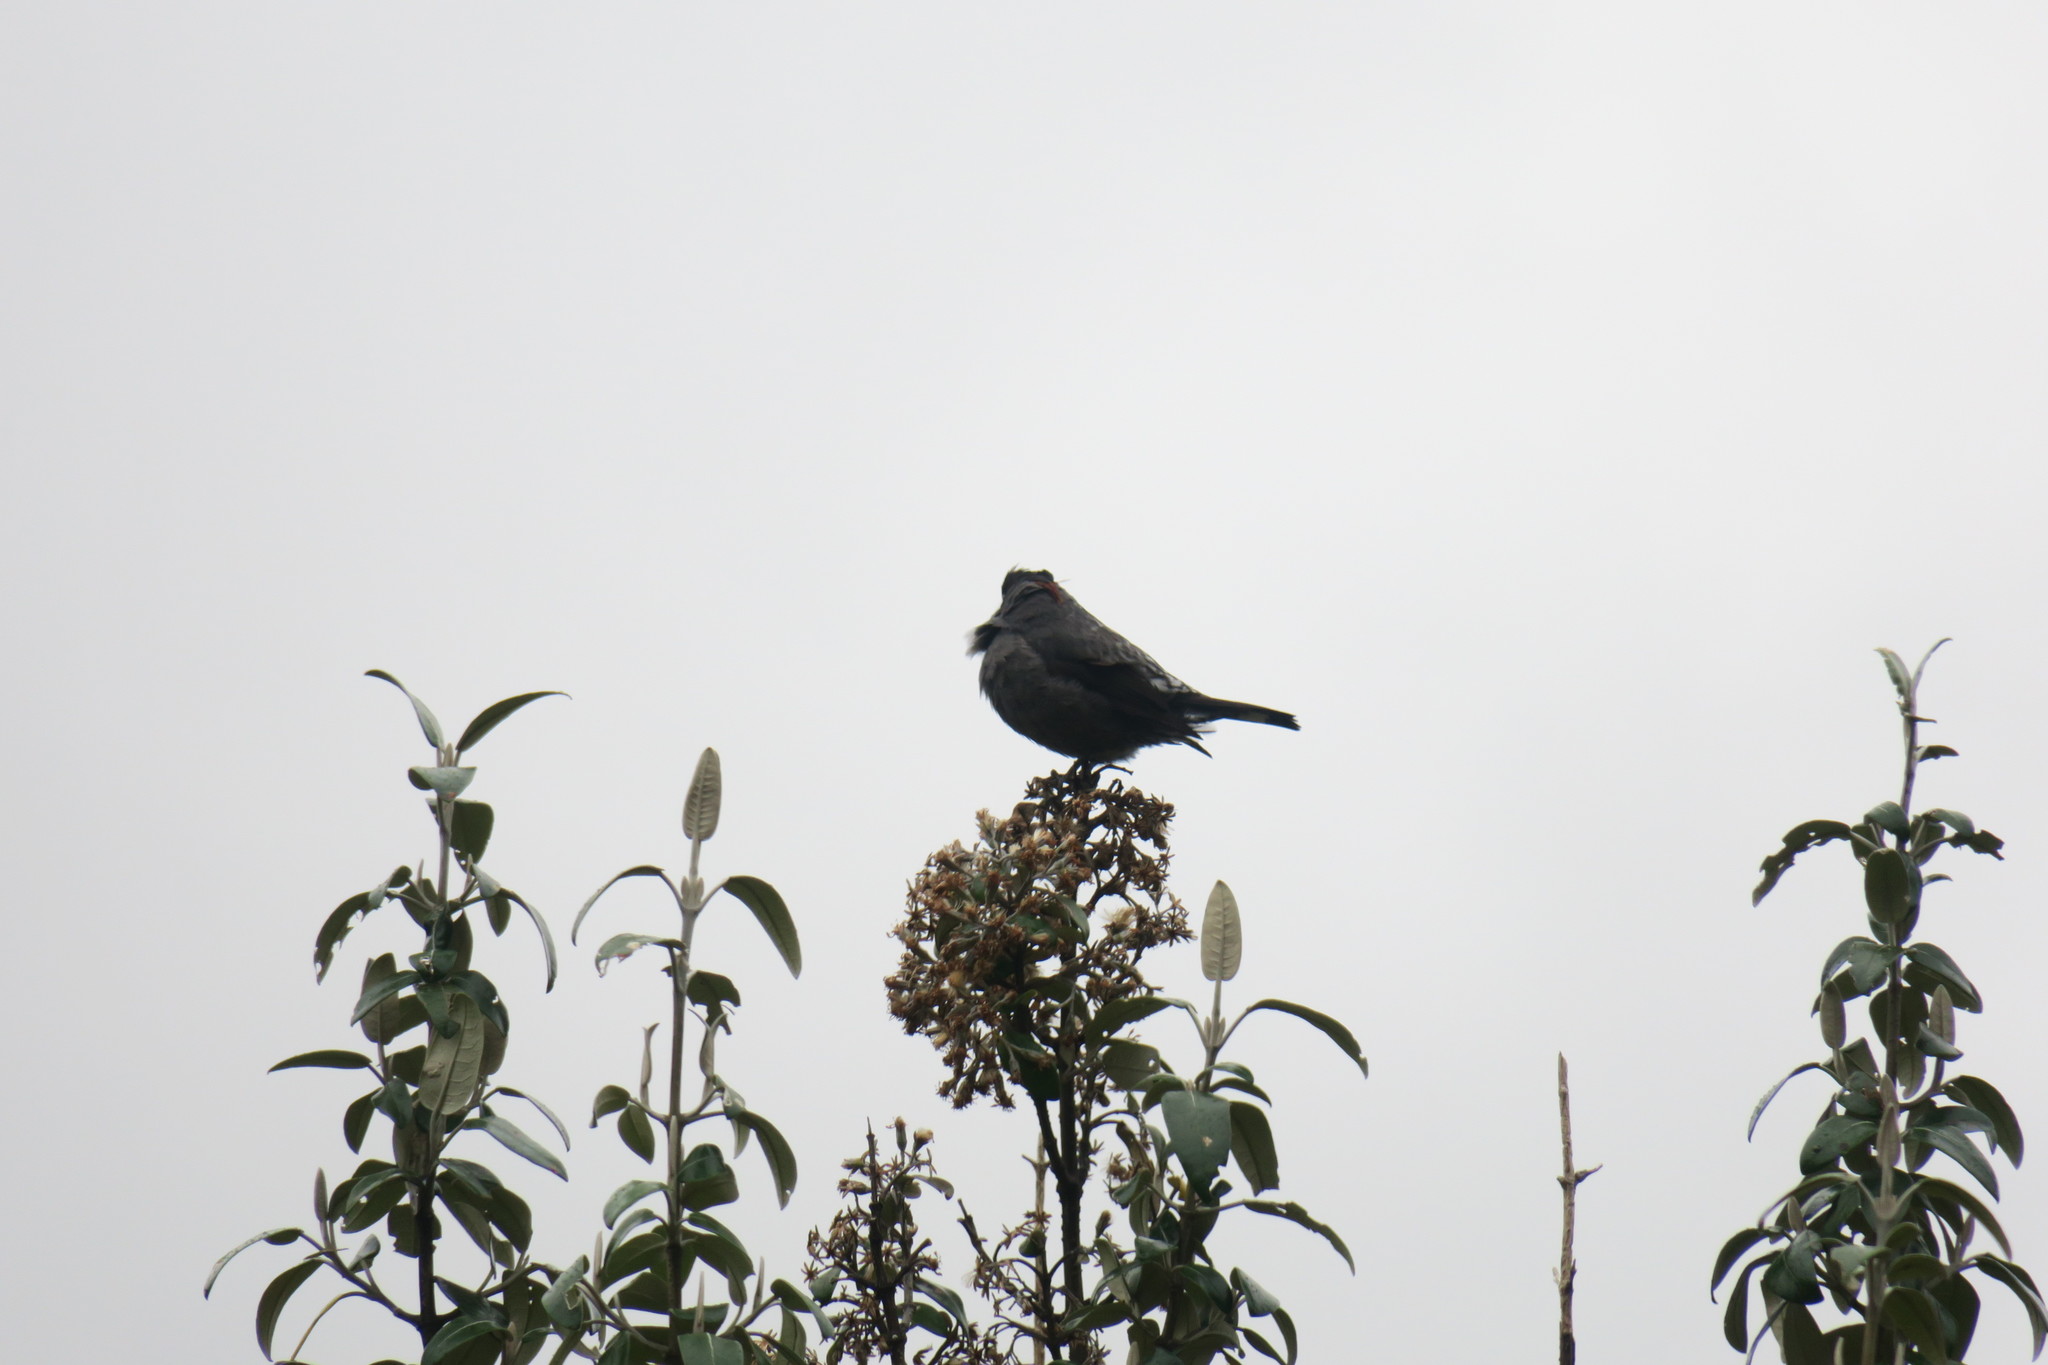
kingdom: Animalia
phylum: Chordata
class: Aves
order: Passeriformes
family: Cotingidae
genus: Ampelion
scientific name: Ampelion rubrocristatus
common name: Red-crested cotinga
